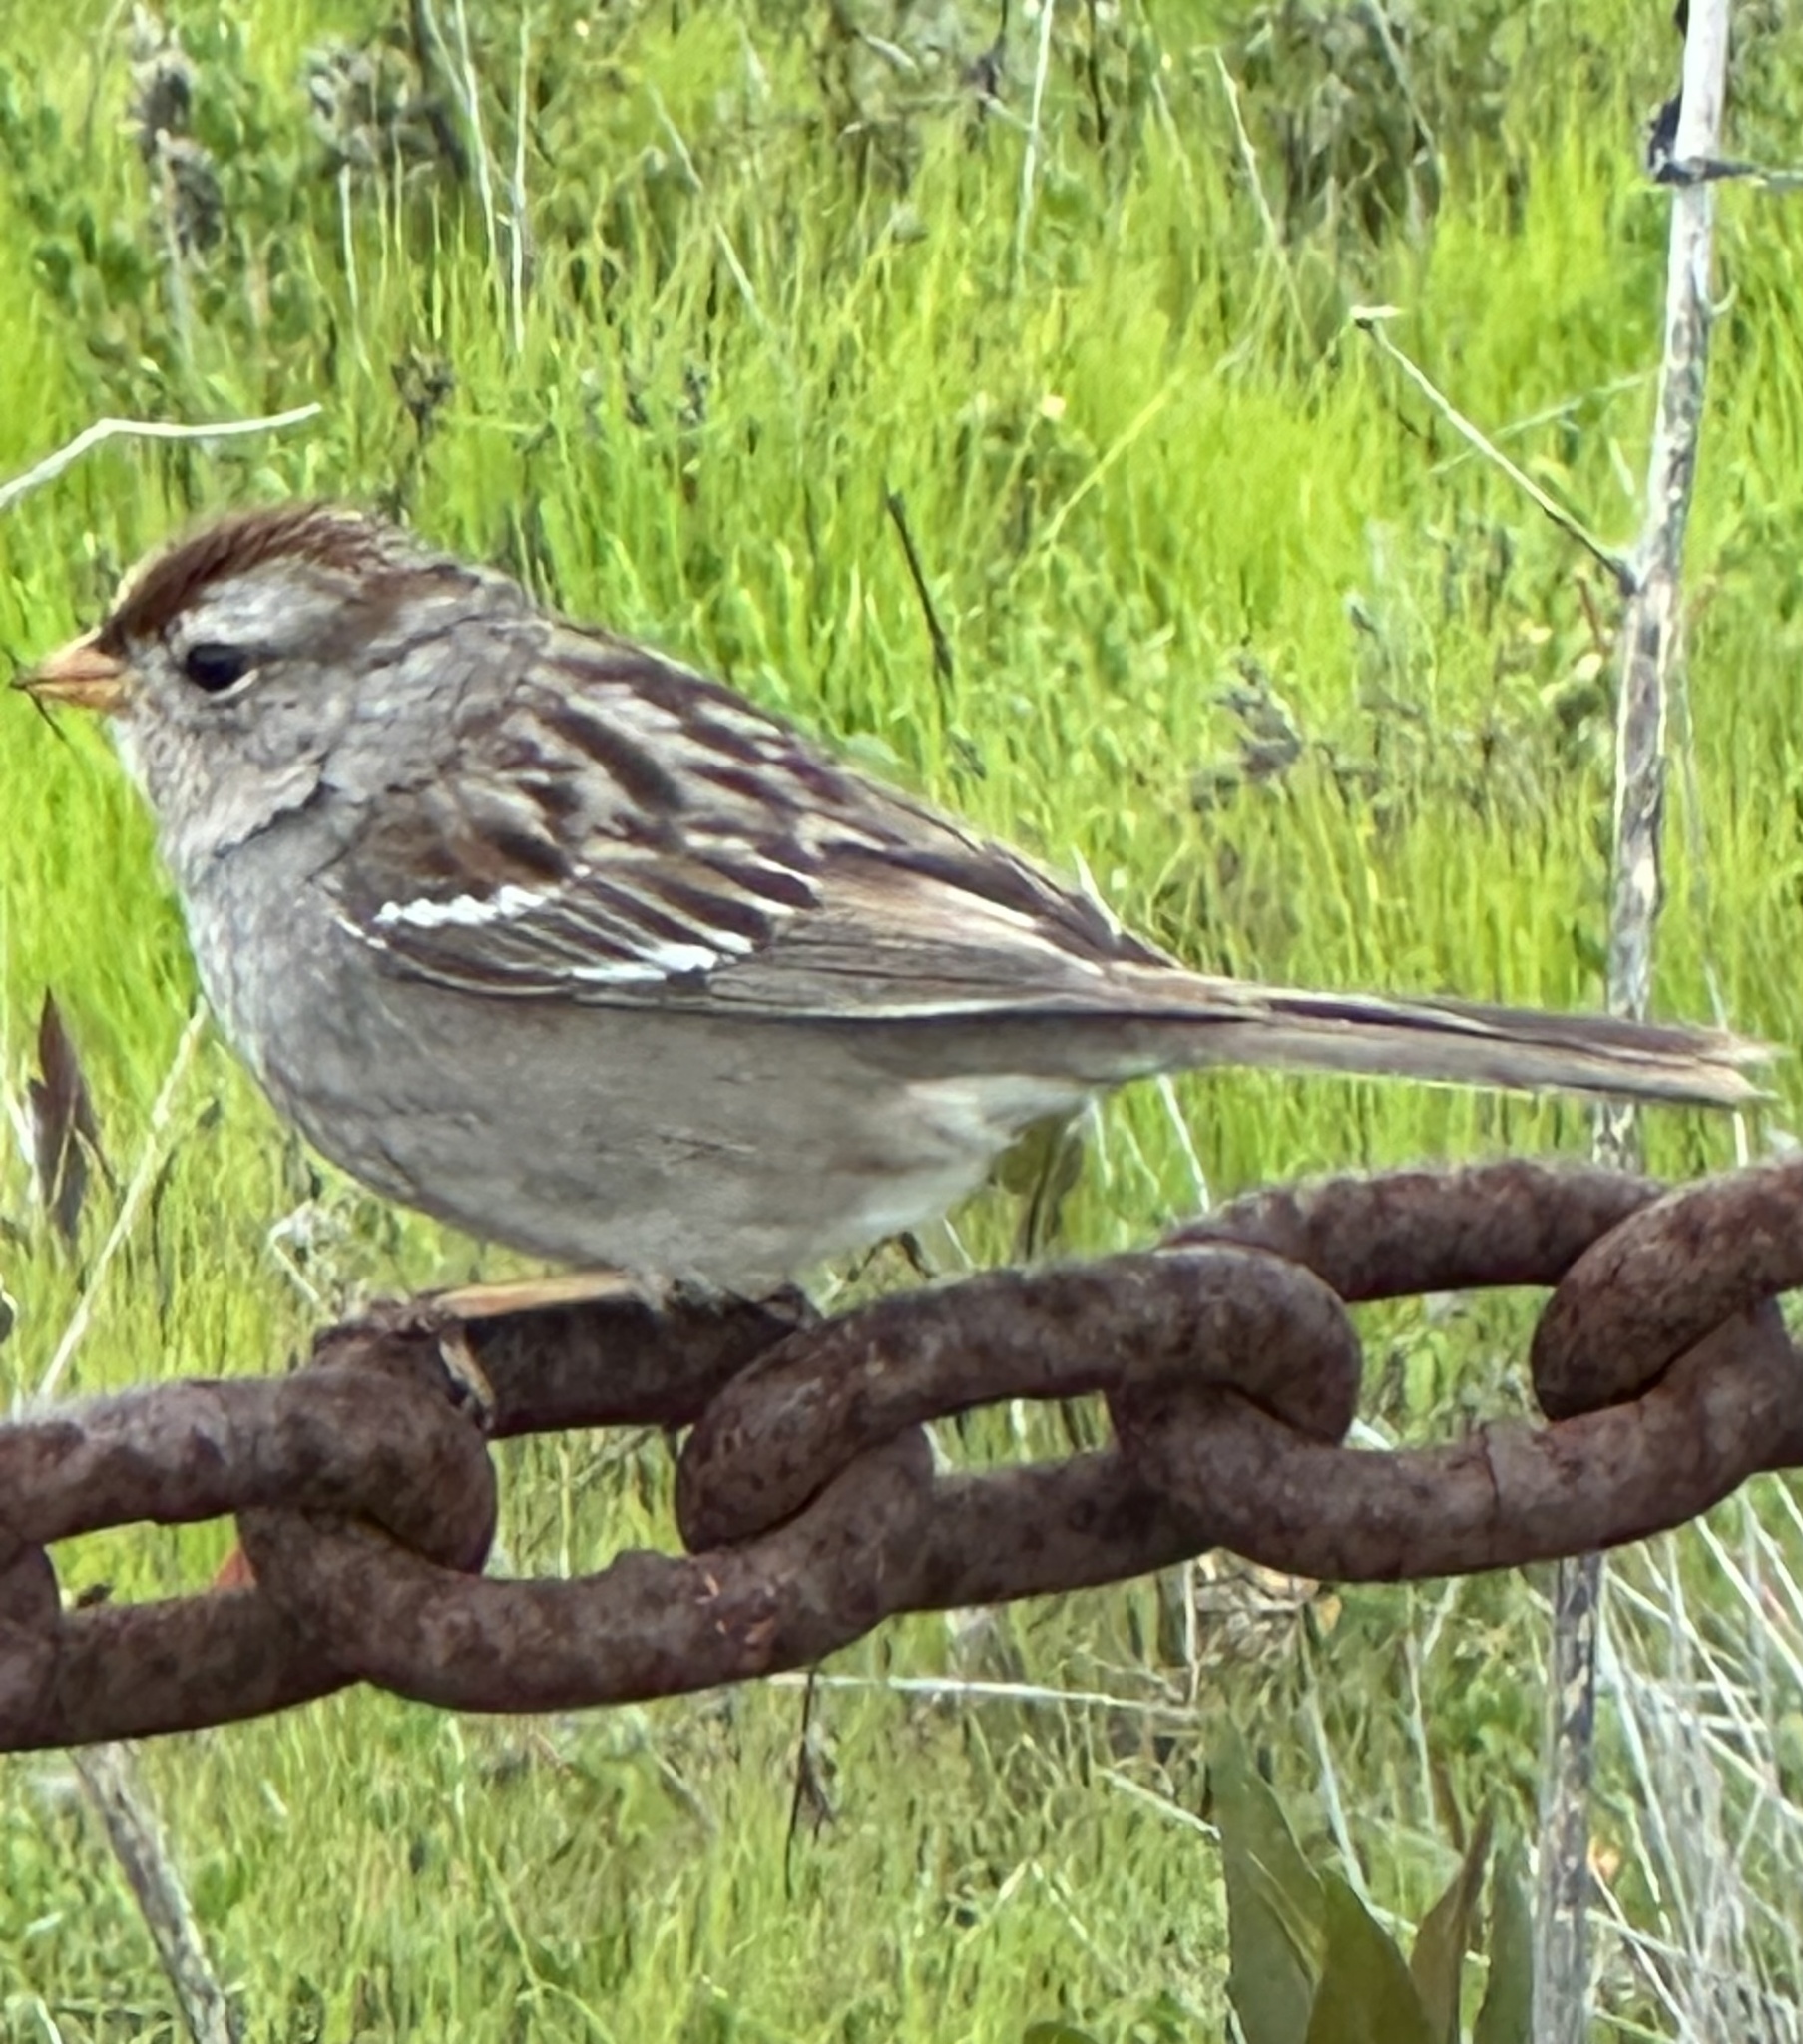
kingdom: Animalia
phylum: Chordata
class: Aves
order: Passeriformes
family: Passerellidae
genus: Zonotrichia
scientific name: Zonotrichia leucophrys
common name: White-crowned sparrow
